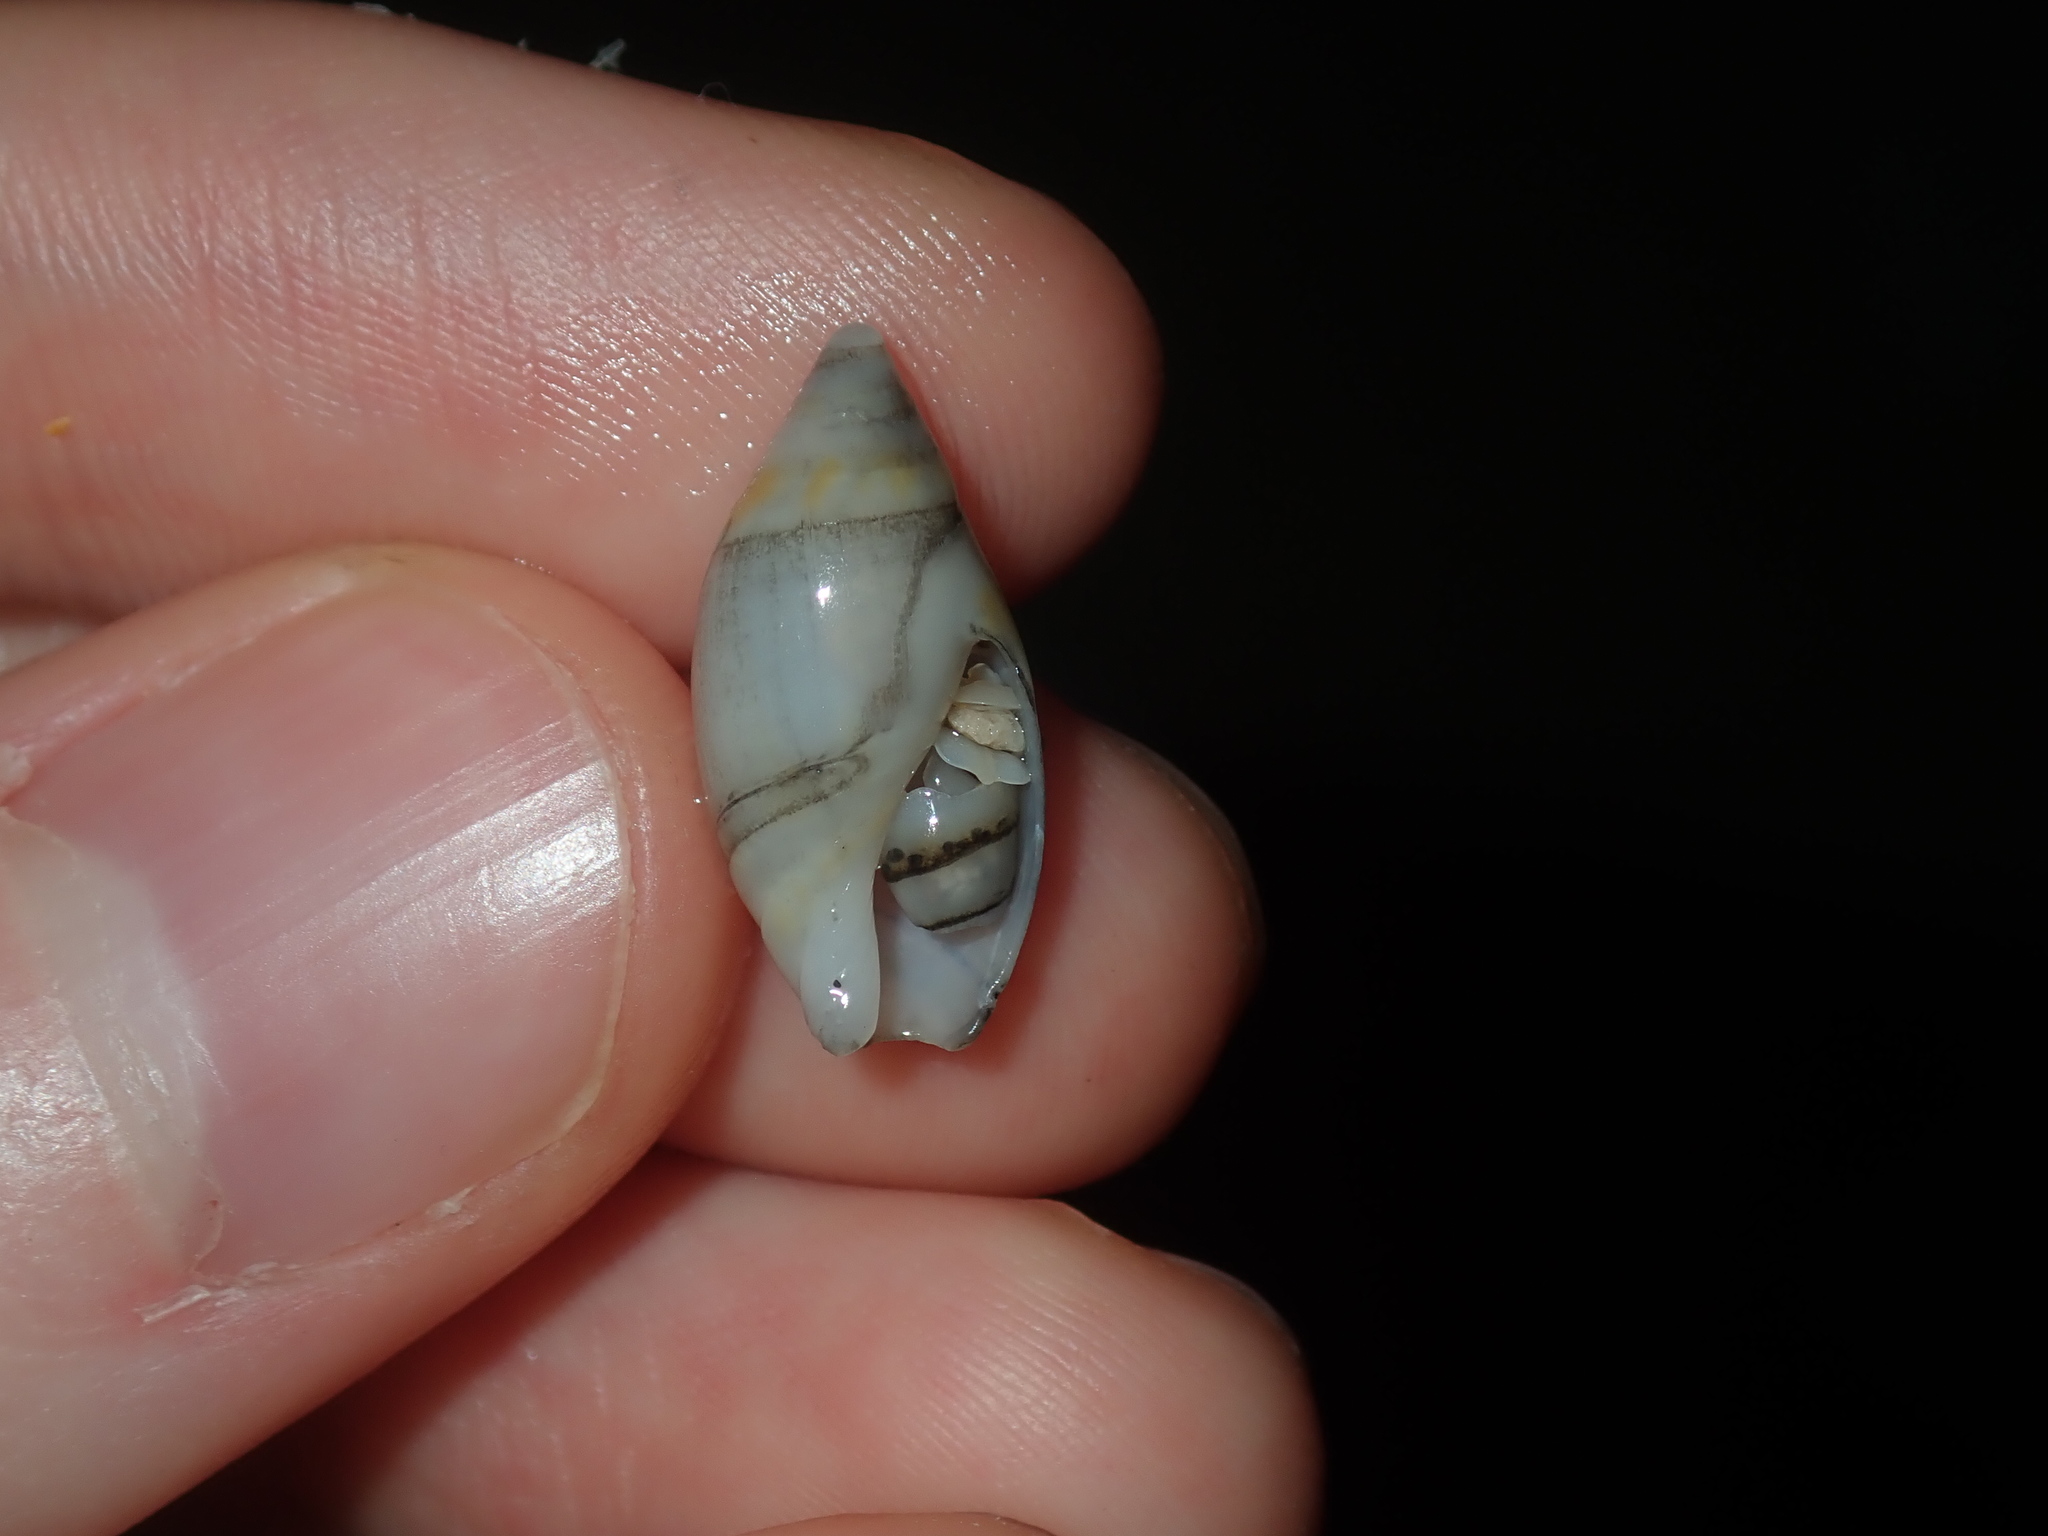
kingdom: Animalia
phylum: Mollusca
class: Gastropoda
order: Neogastropoda
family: Ancillariidae
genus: Amalda
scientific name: Amalda marginata
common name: Margin ancilla
